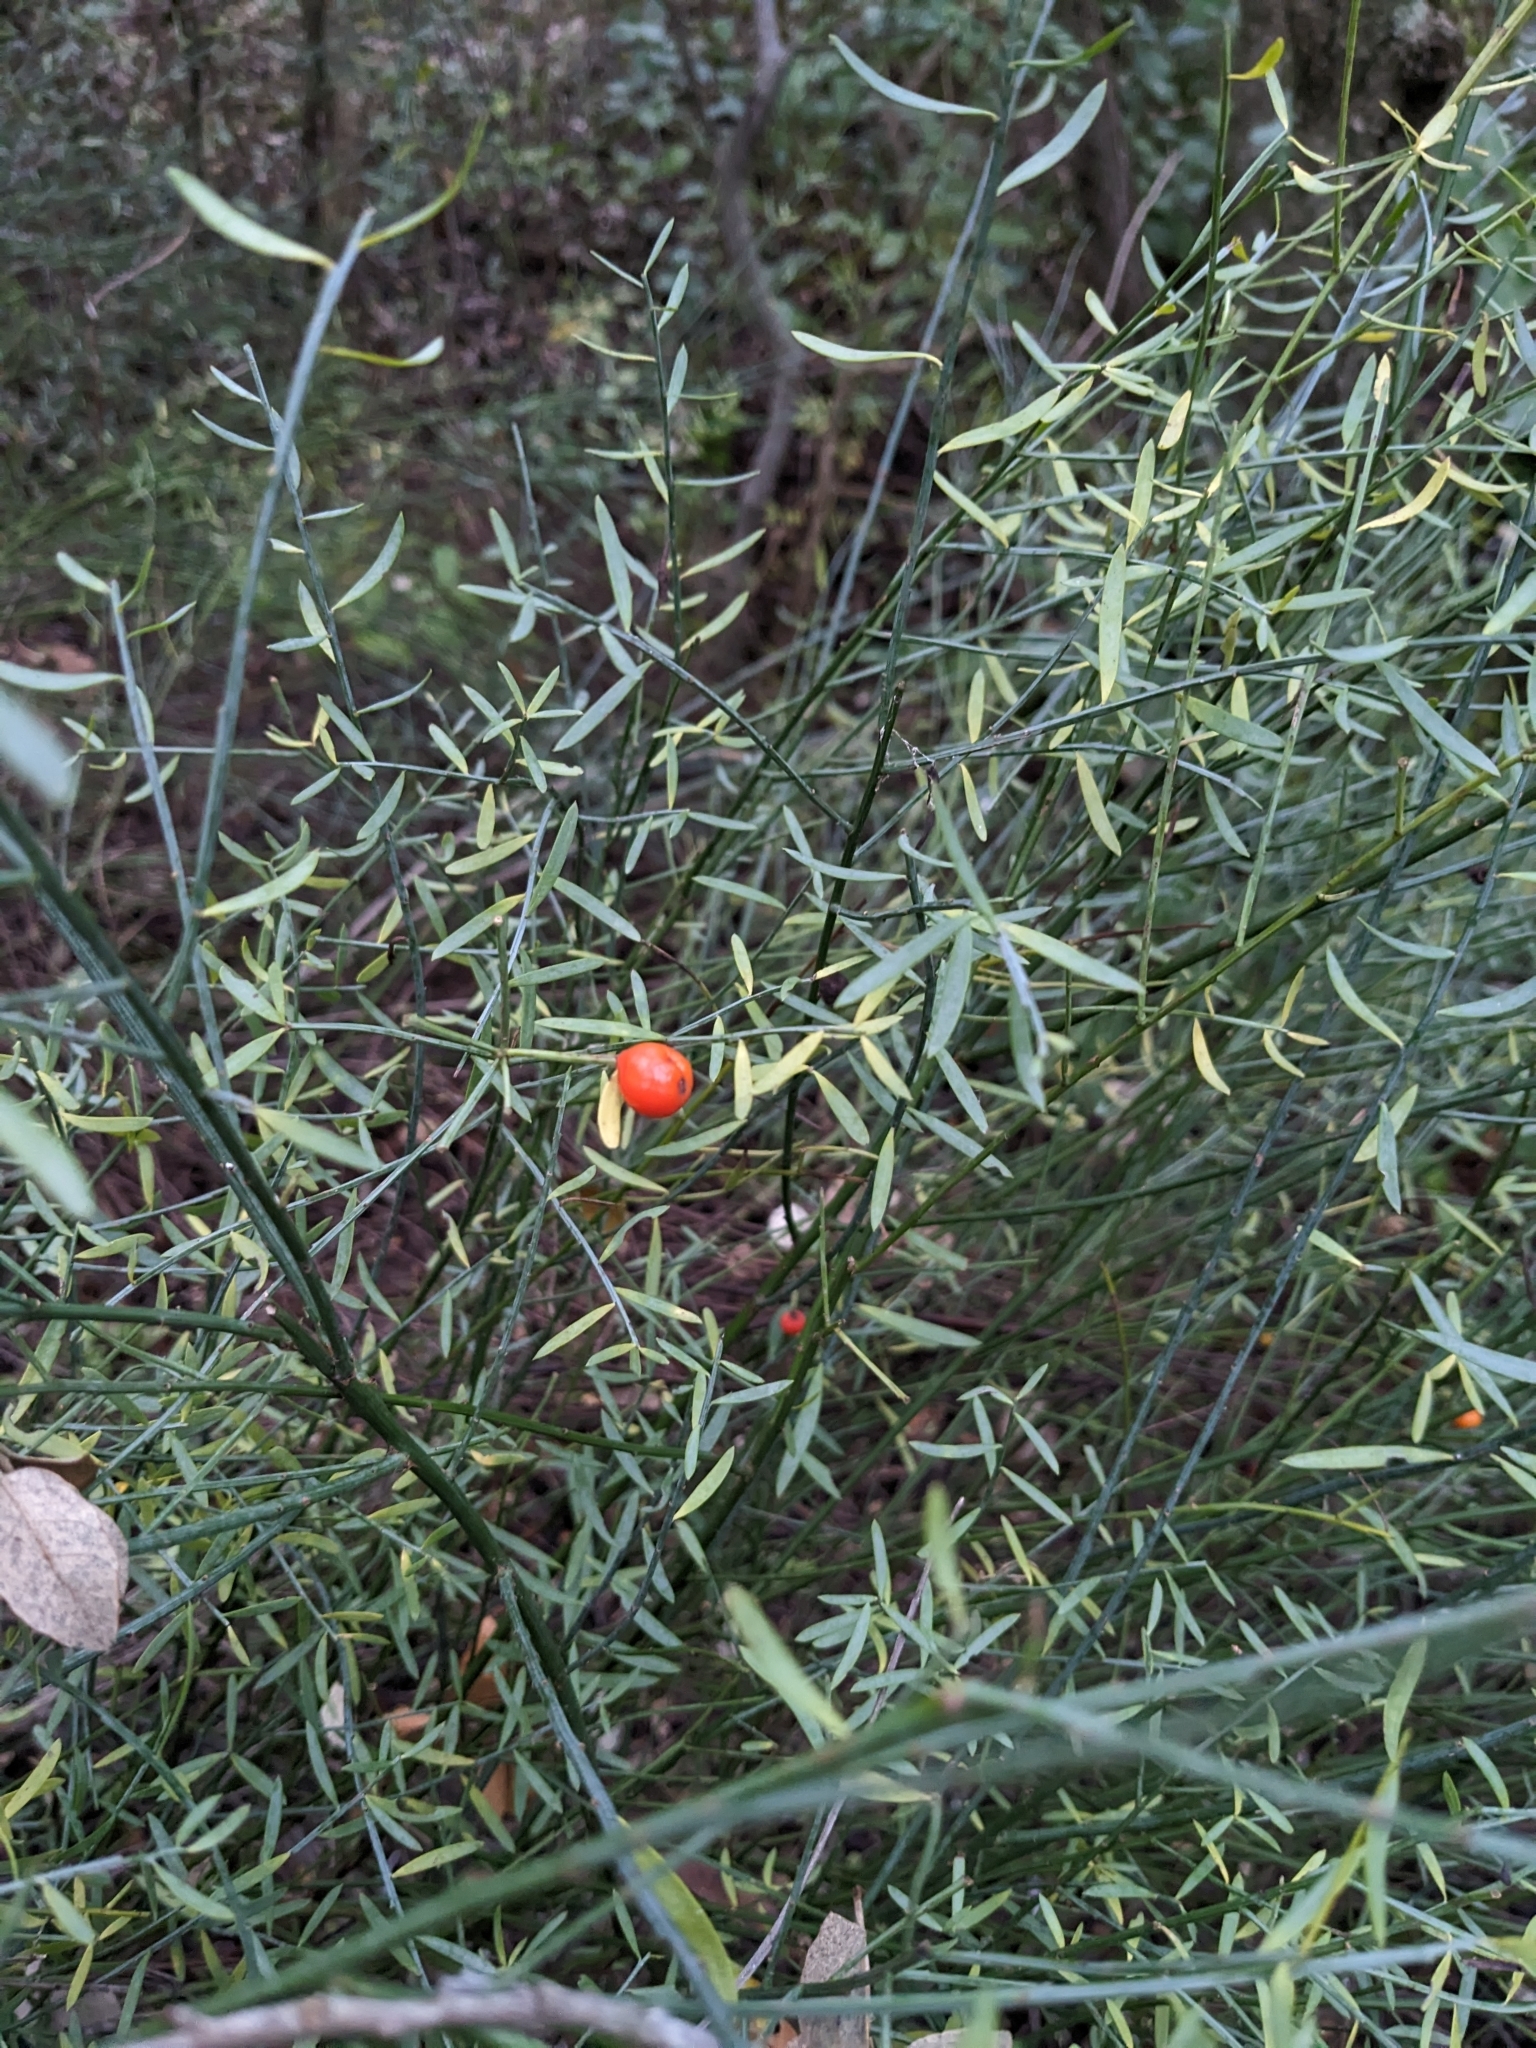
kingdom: Plantae
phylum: Tracheophyta
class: Magnoliopsida
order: Santalales
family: Santalaceae
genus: Osyris
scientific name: Osyris alba
